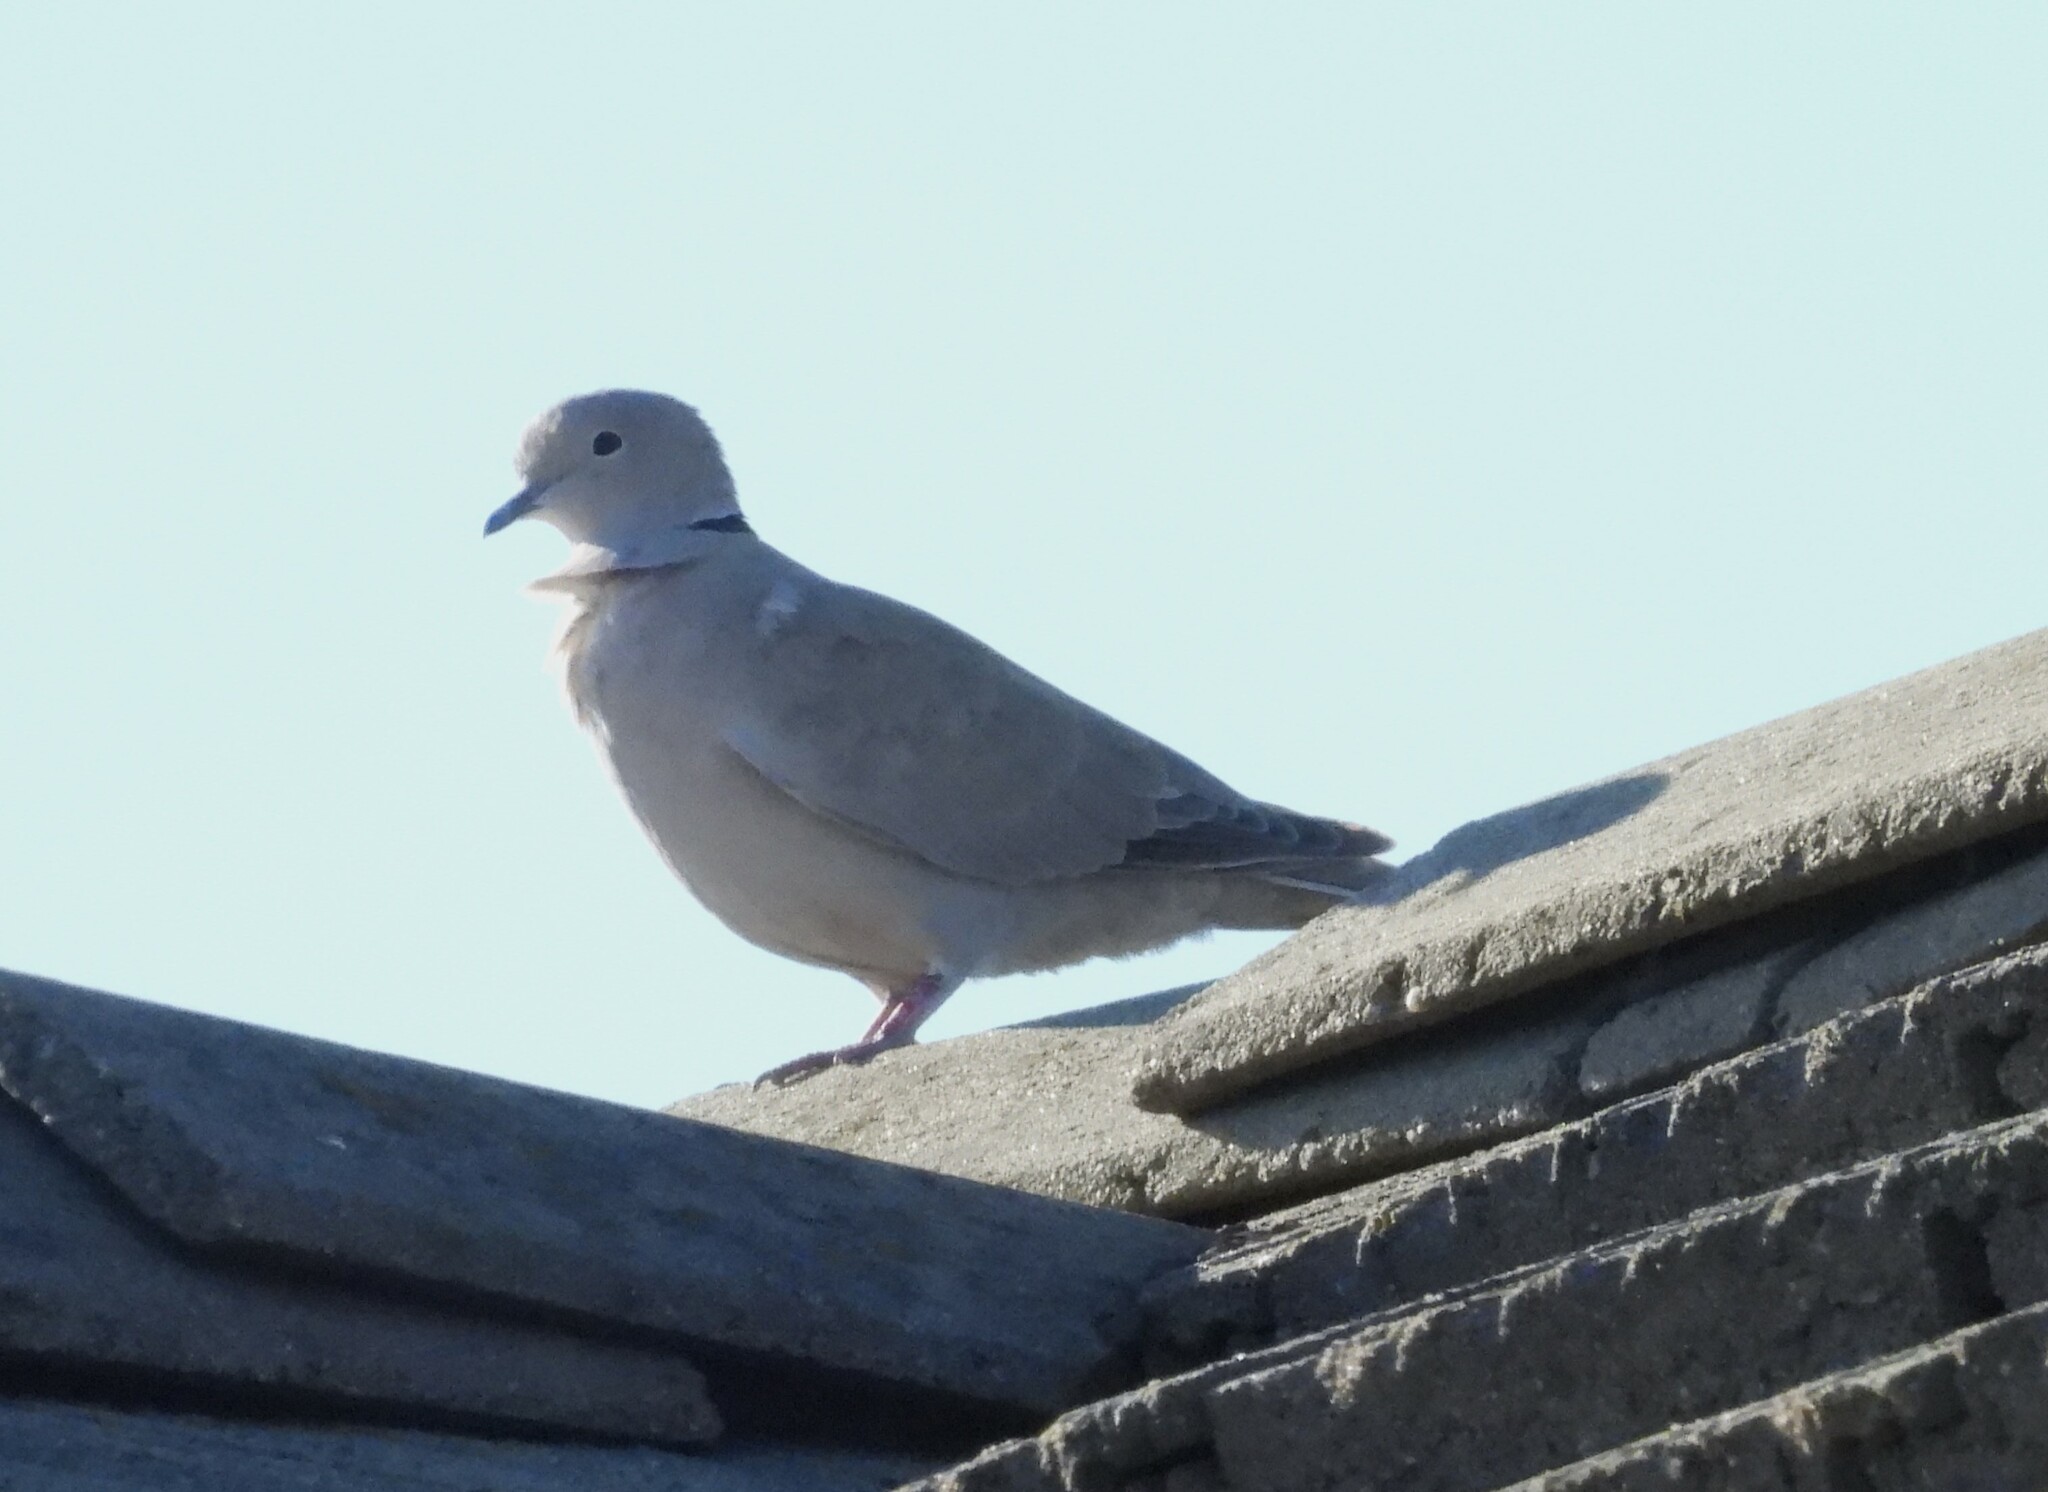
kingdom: Animalia
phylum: Chordata
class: Aves
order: Columbiformes
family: Columbidae
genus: Streptopelia
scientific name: Streptopelia decaocto
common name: Eurasian collared dove
